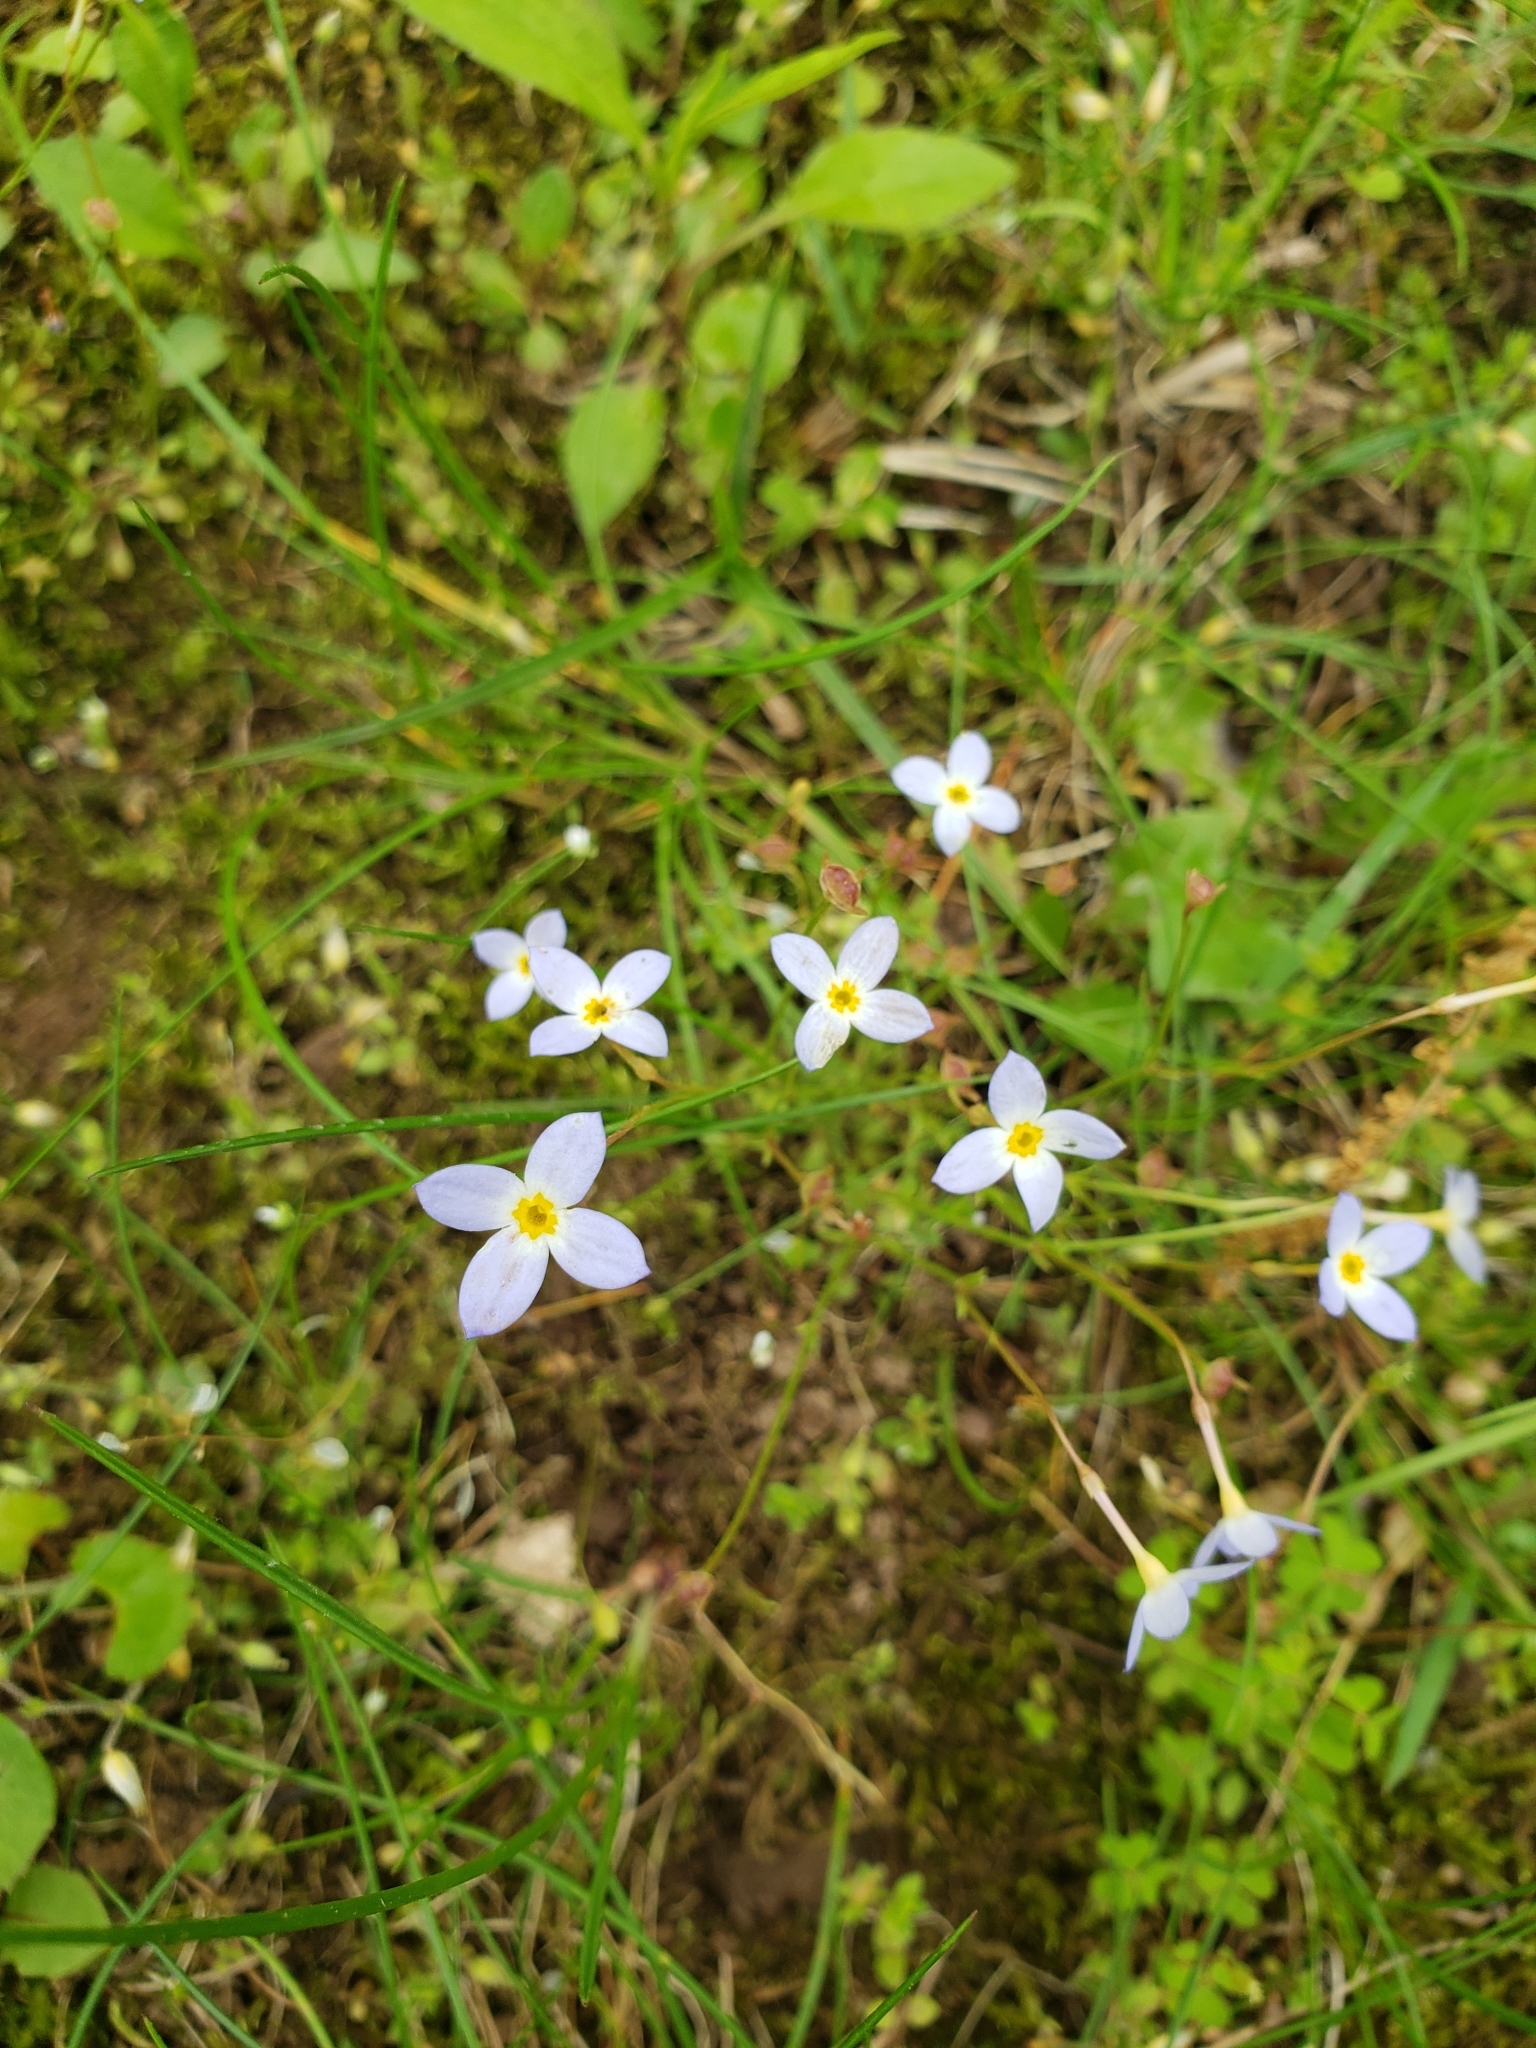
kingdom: Plantae
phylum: Tracheophyta
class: Magnoliopsida
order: Gentianales
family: Rubiaceae
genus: Houstonia
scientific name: Houstonia caerulea
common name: Bluets
